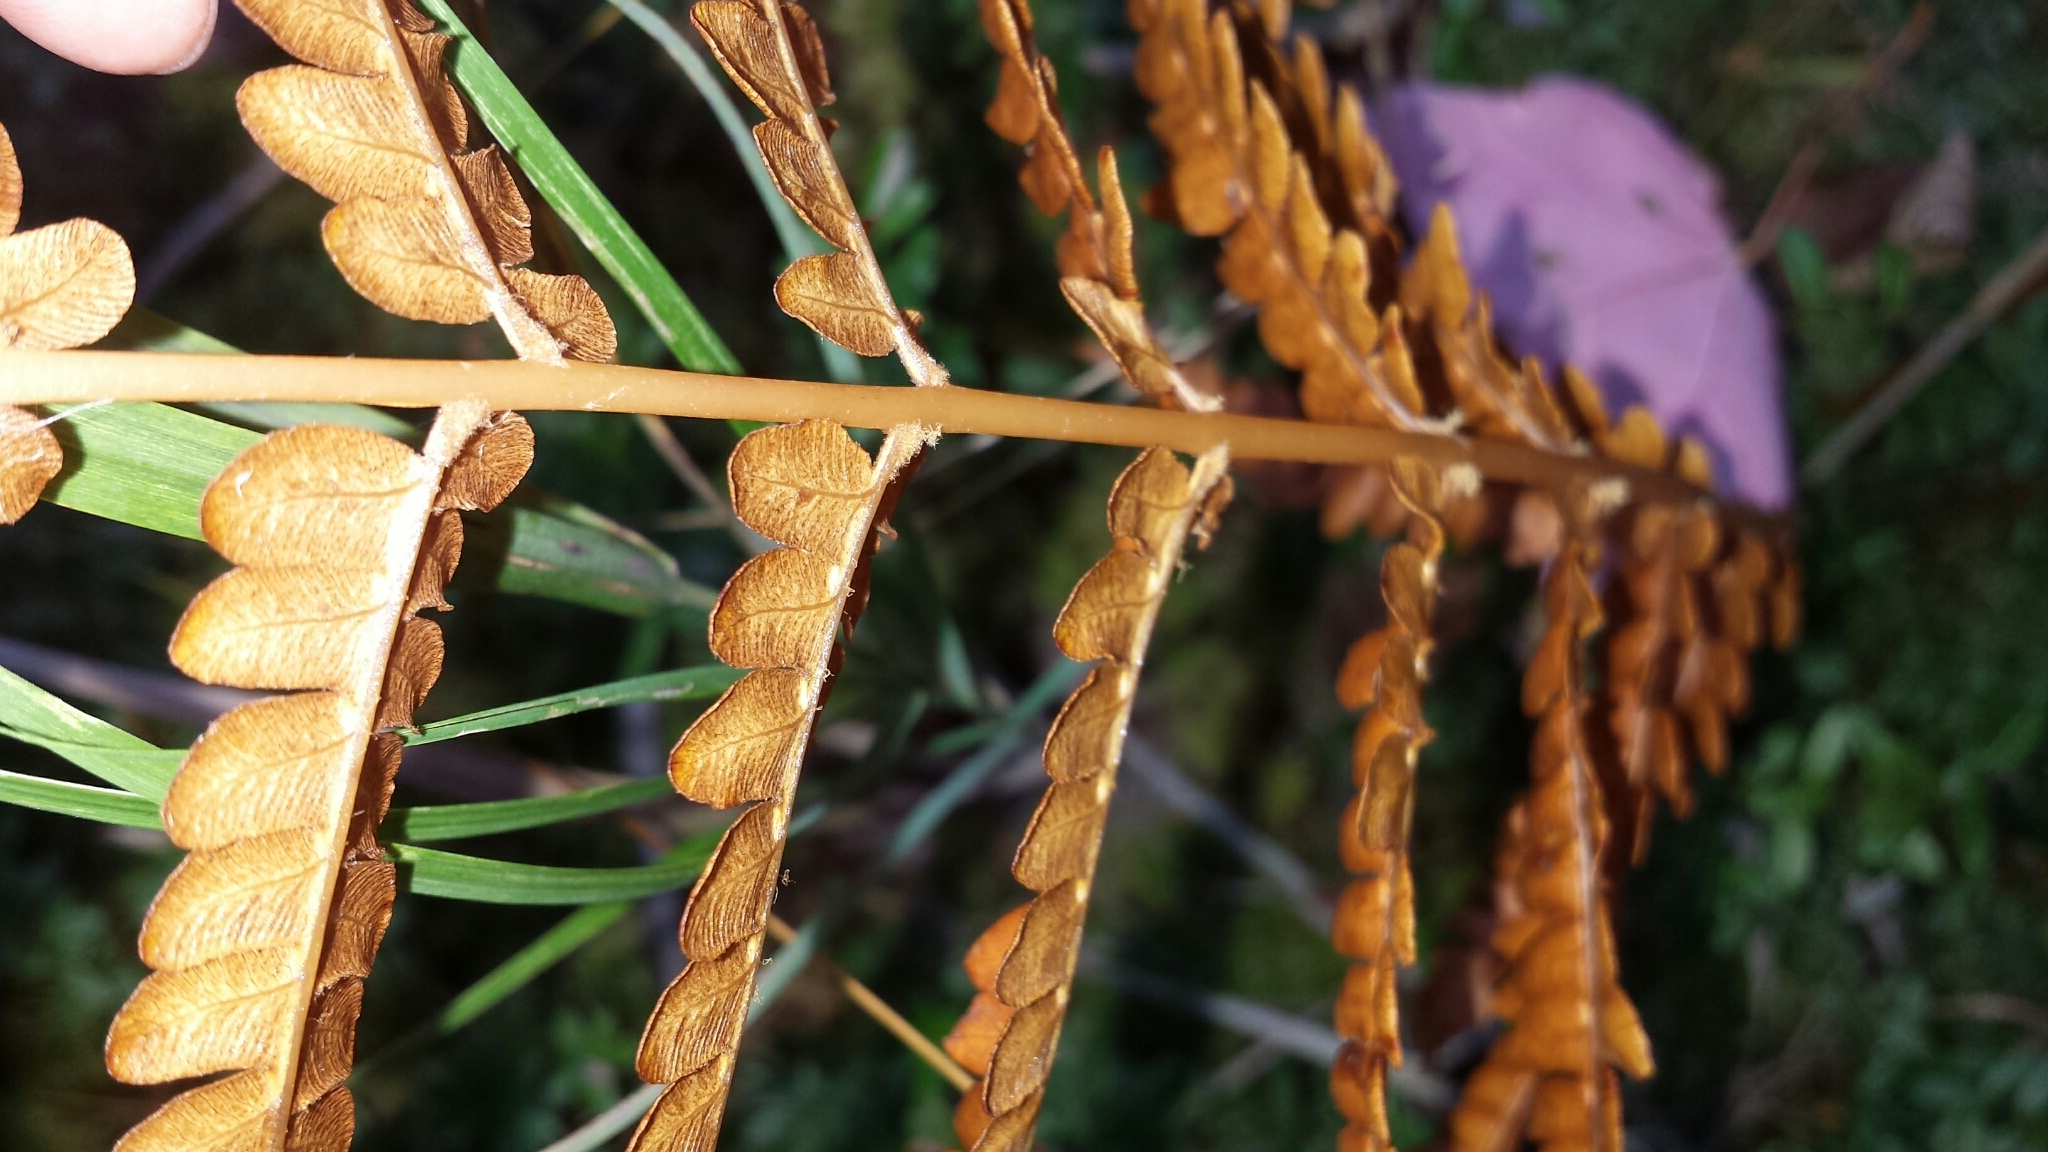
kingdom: Plantae
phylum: Tracheophyta
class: Polypodiopsida
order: Osmundales
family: Osmundaceae
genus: Osmundastrum
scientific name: Osmundastrum cinnamomeum
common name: Cinnamon fern
